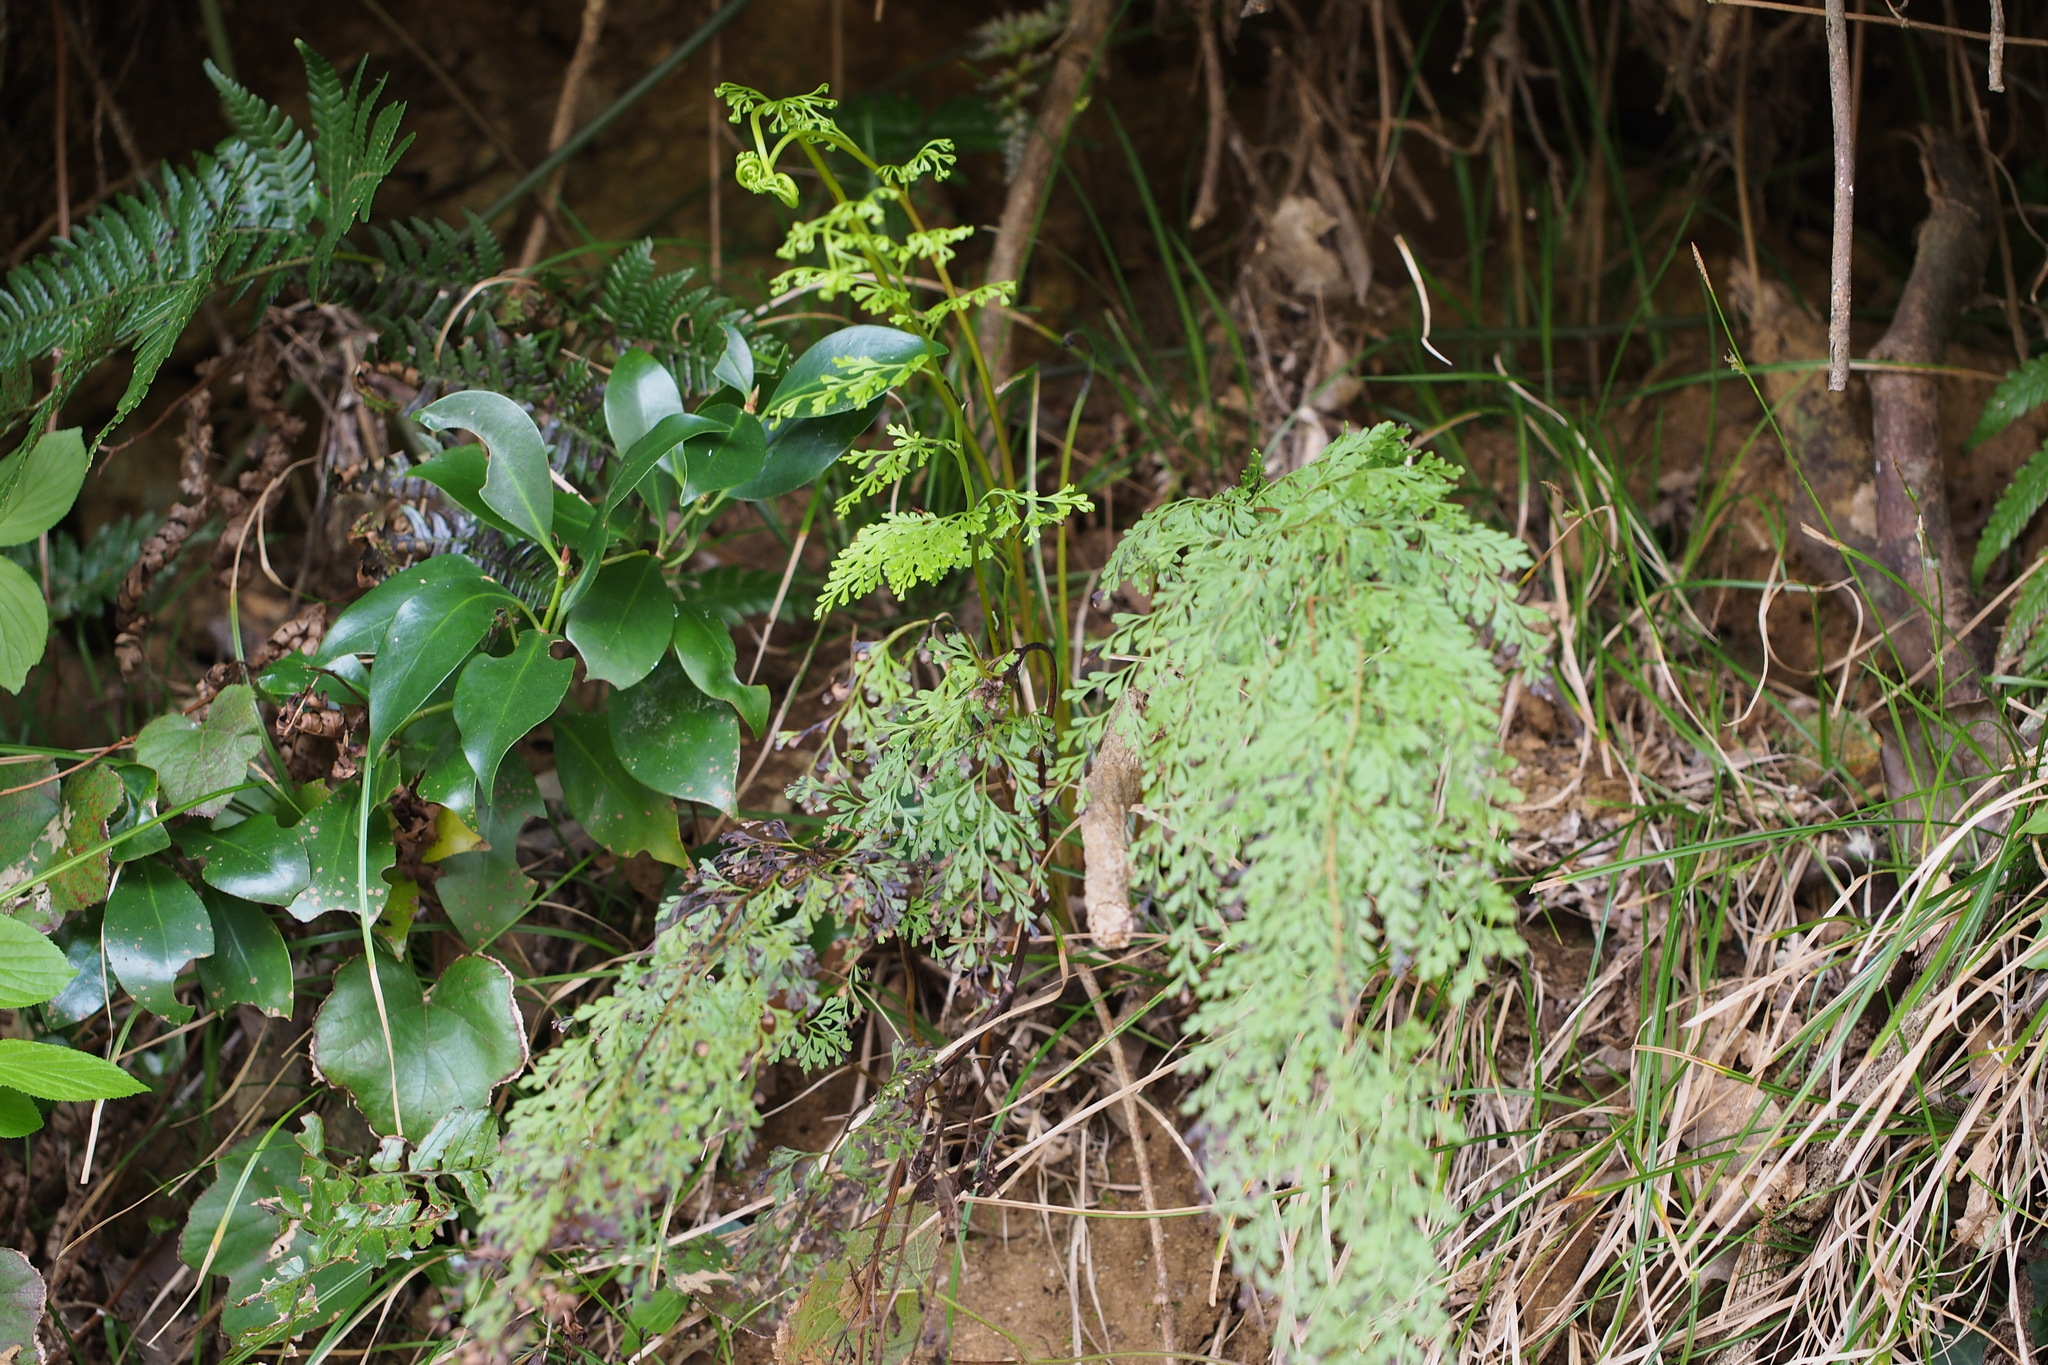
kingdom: Plantae
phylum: Tracheophyta
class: Polypodiopsida
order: Polypodiales
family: Lindsaeaceae
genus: Odontosoria
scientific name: Odontosoria chinensis
